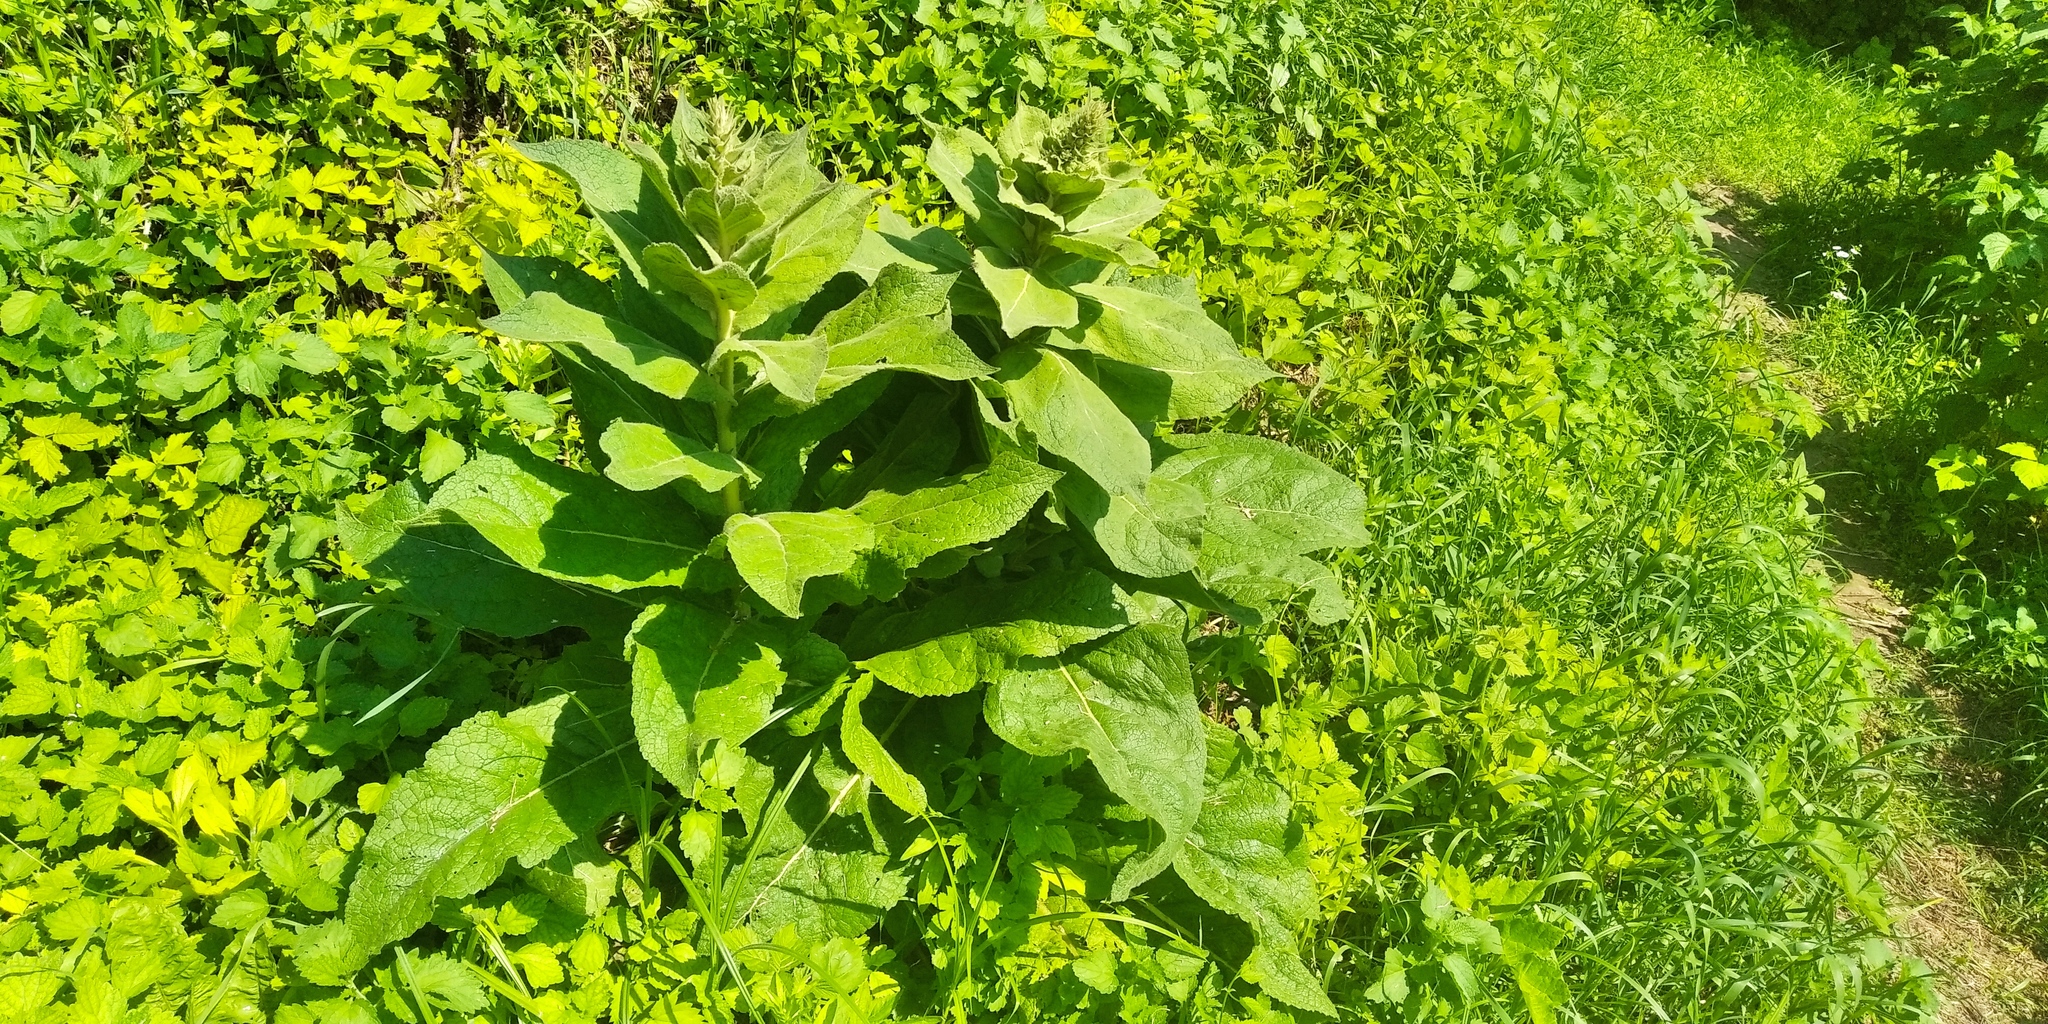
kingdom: Plantae
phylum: Tracheophyta
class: Magnoliopsida
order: Lamiales
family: Scrophulariaceae
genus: Verbascum
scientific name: Verbascum phlomoides
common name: Orange mullein
